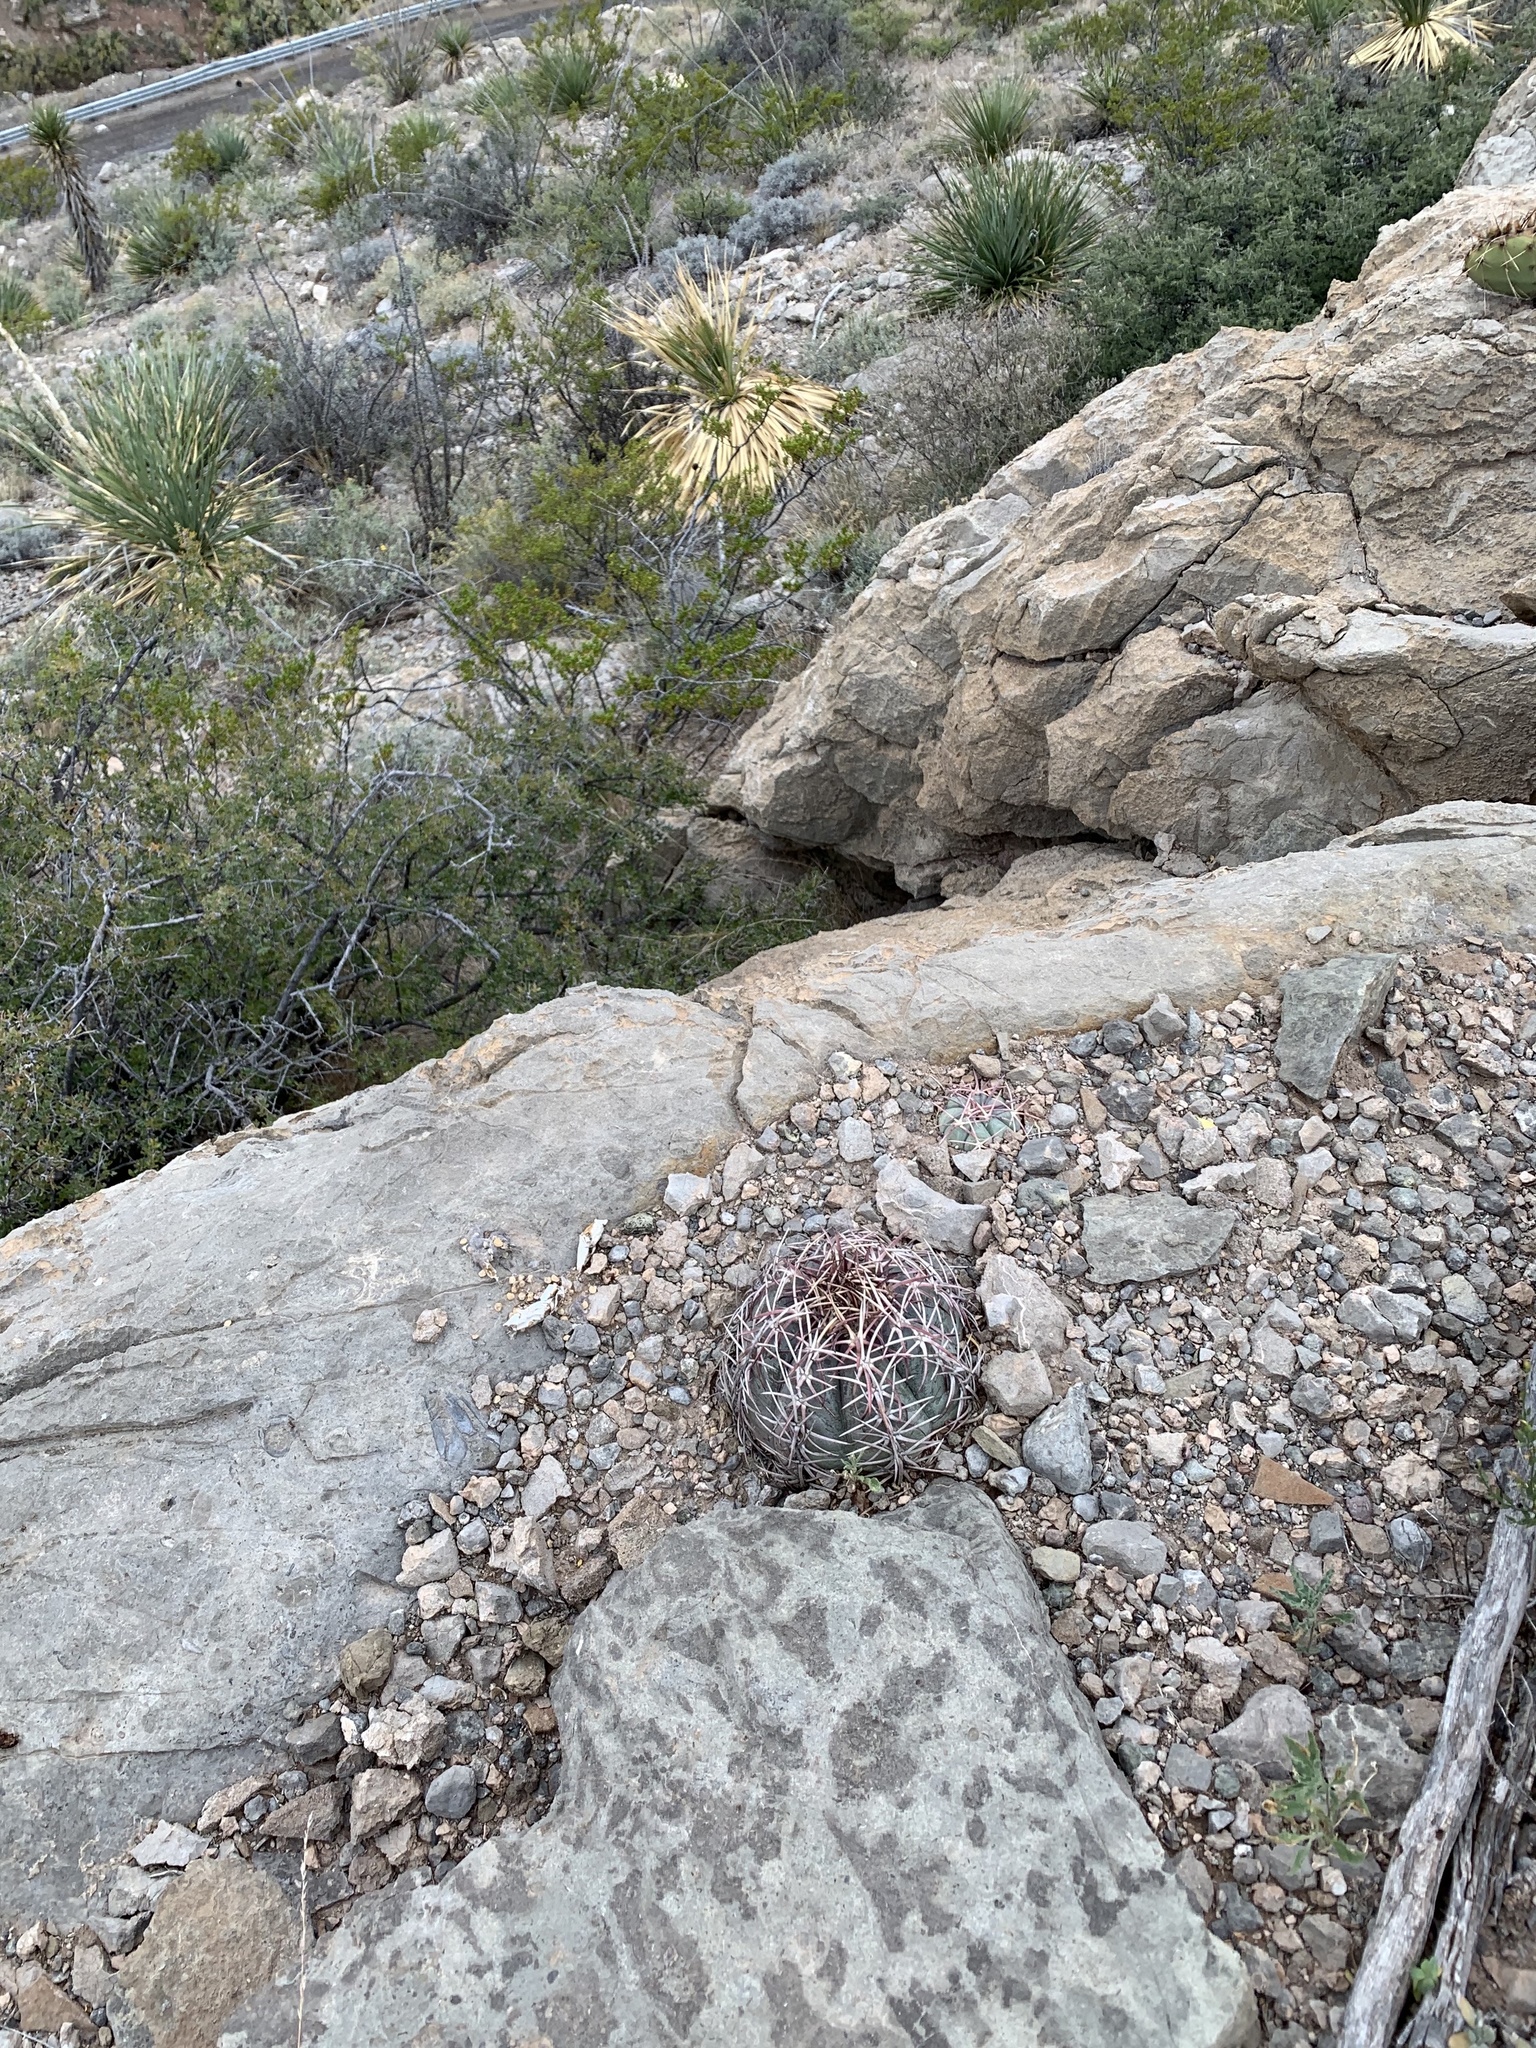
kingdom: Plantae
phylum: Tracheophyta
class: Magnoliopsida
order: Caryophyllales
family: Cactaceae
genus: Echinocactus
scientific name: Echinocactus horizonthalonius
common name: Devilshead
